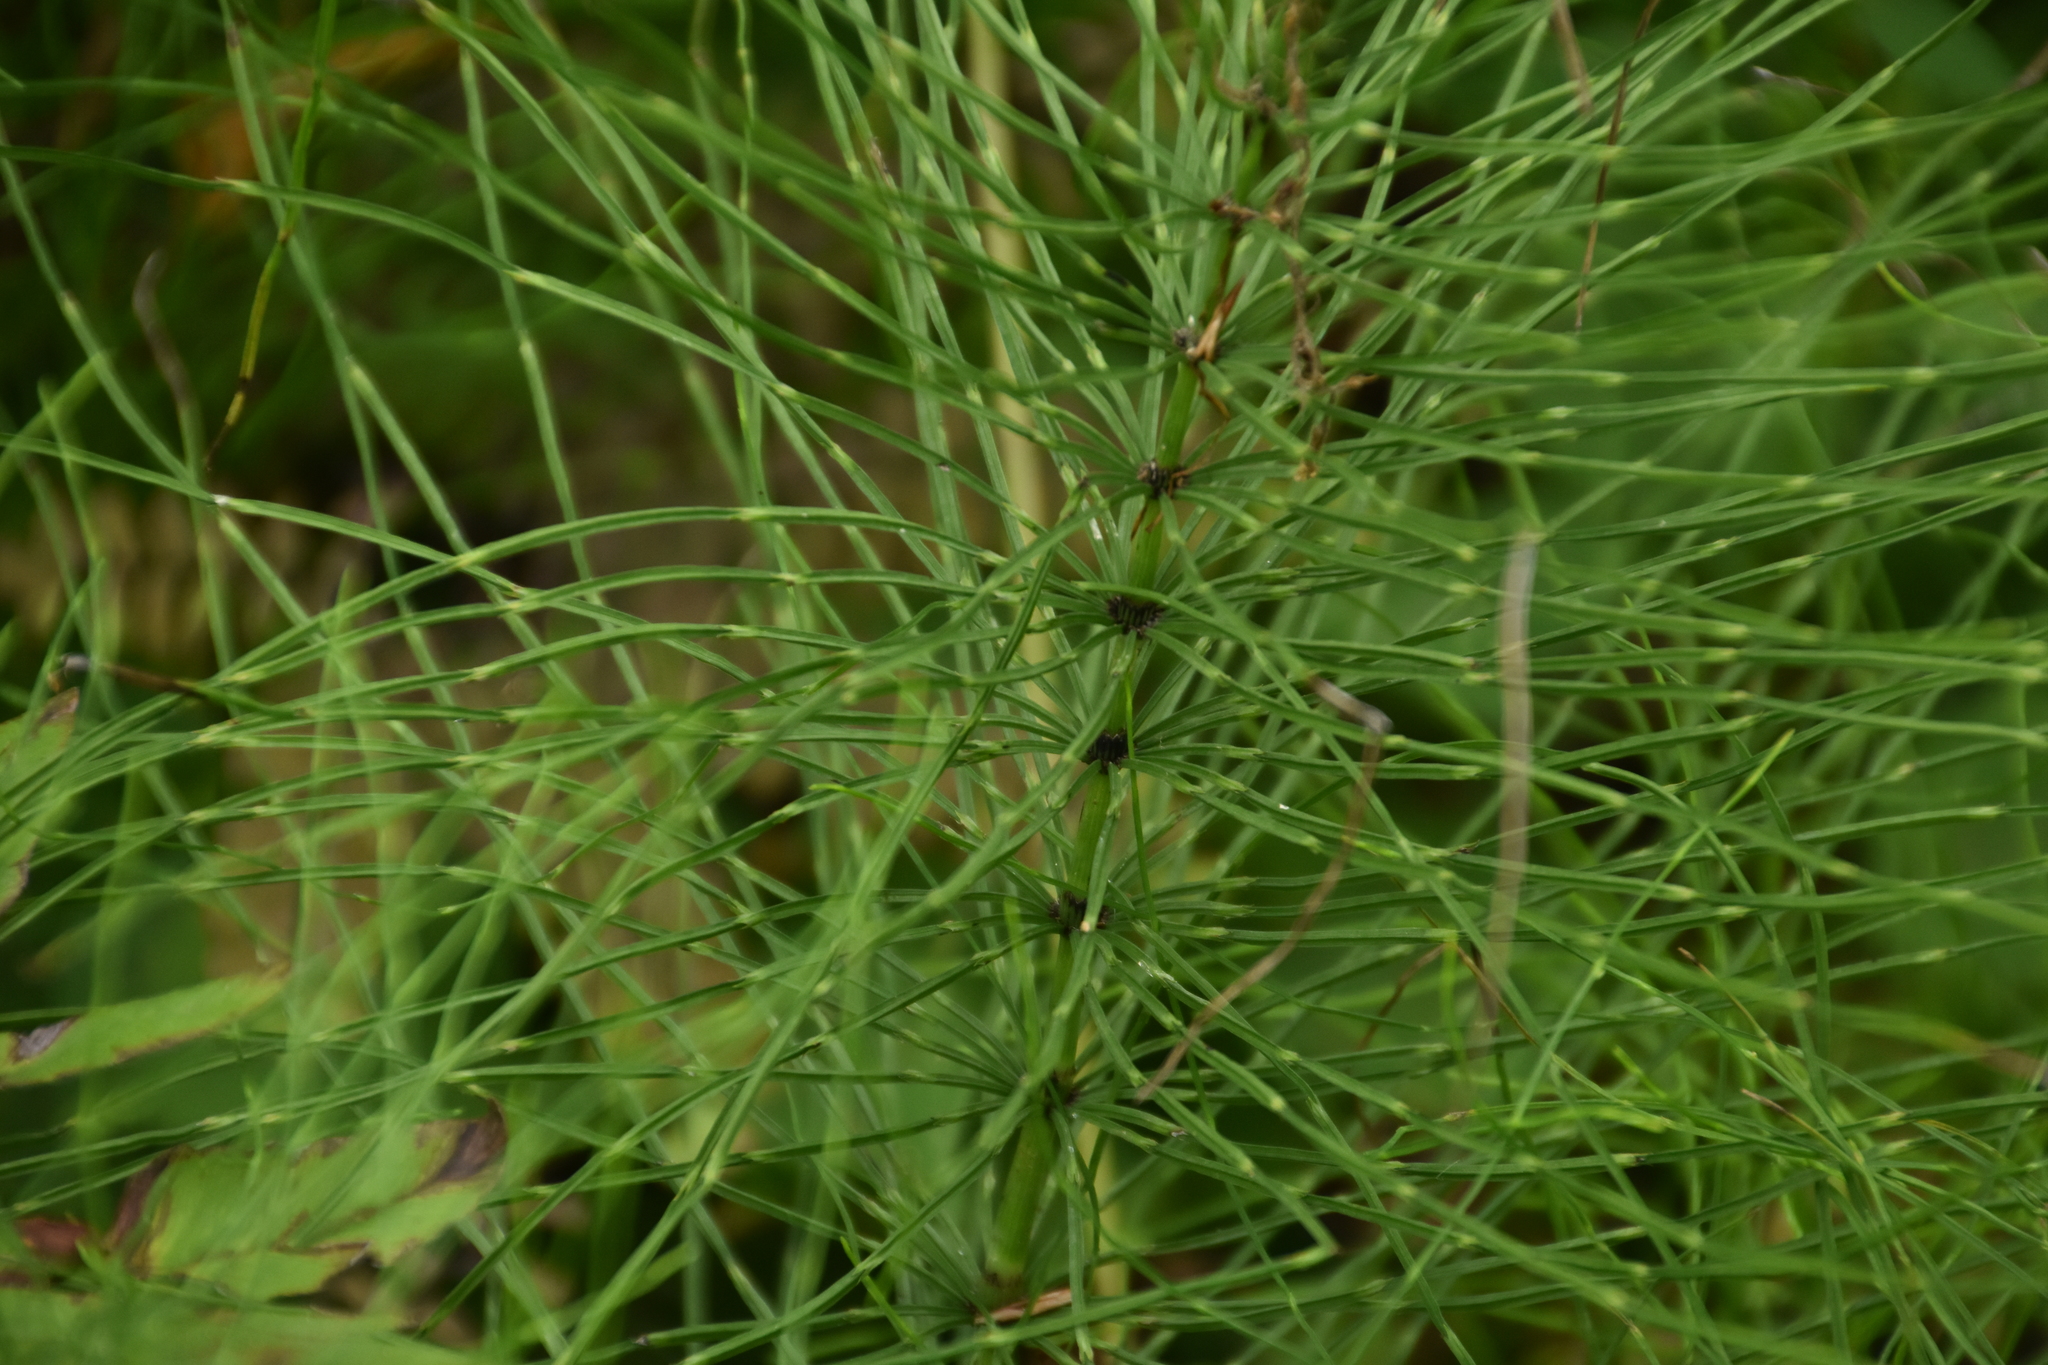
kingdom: Plantae
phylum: Tracheophyta
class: Polypodiopsida
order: Equisetales
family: Equisetaceae
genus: Equisetum
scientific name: Equisetum arvense
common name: Field horsetail
